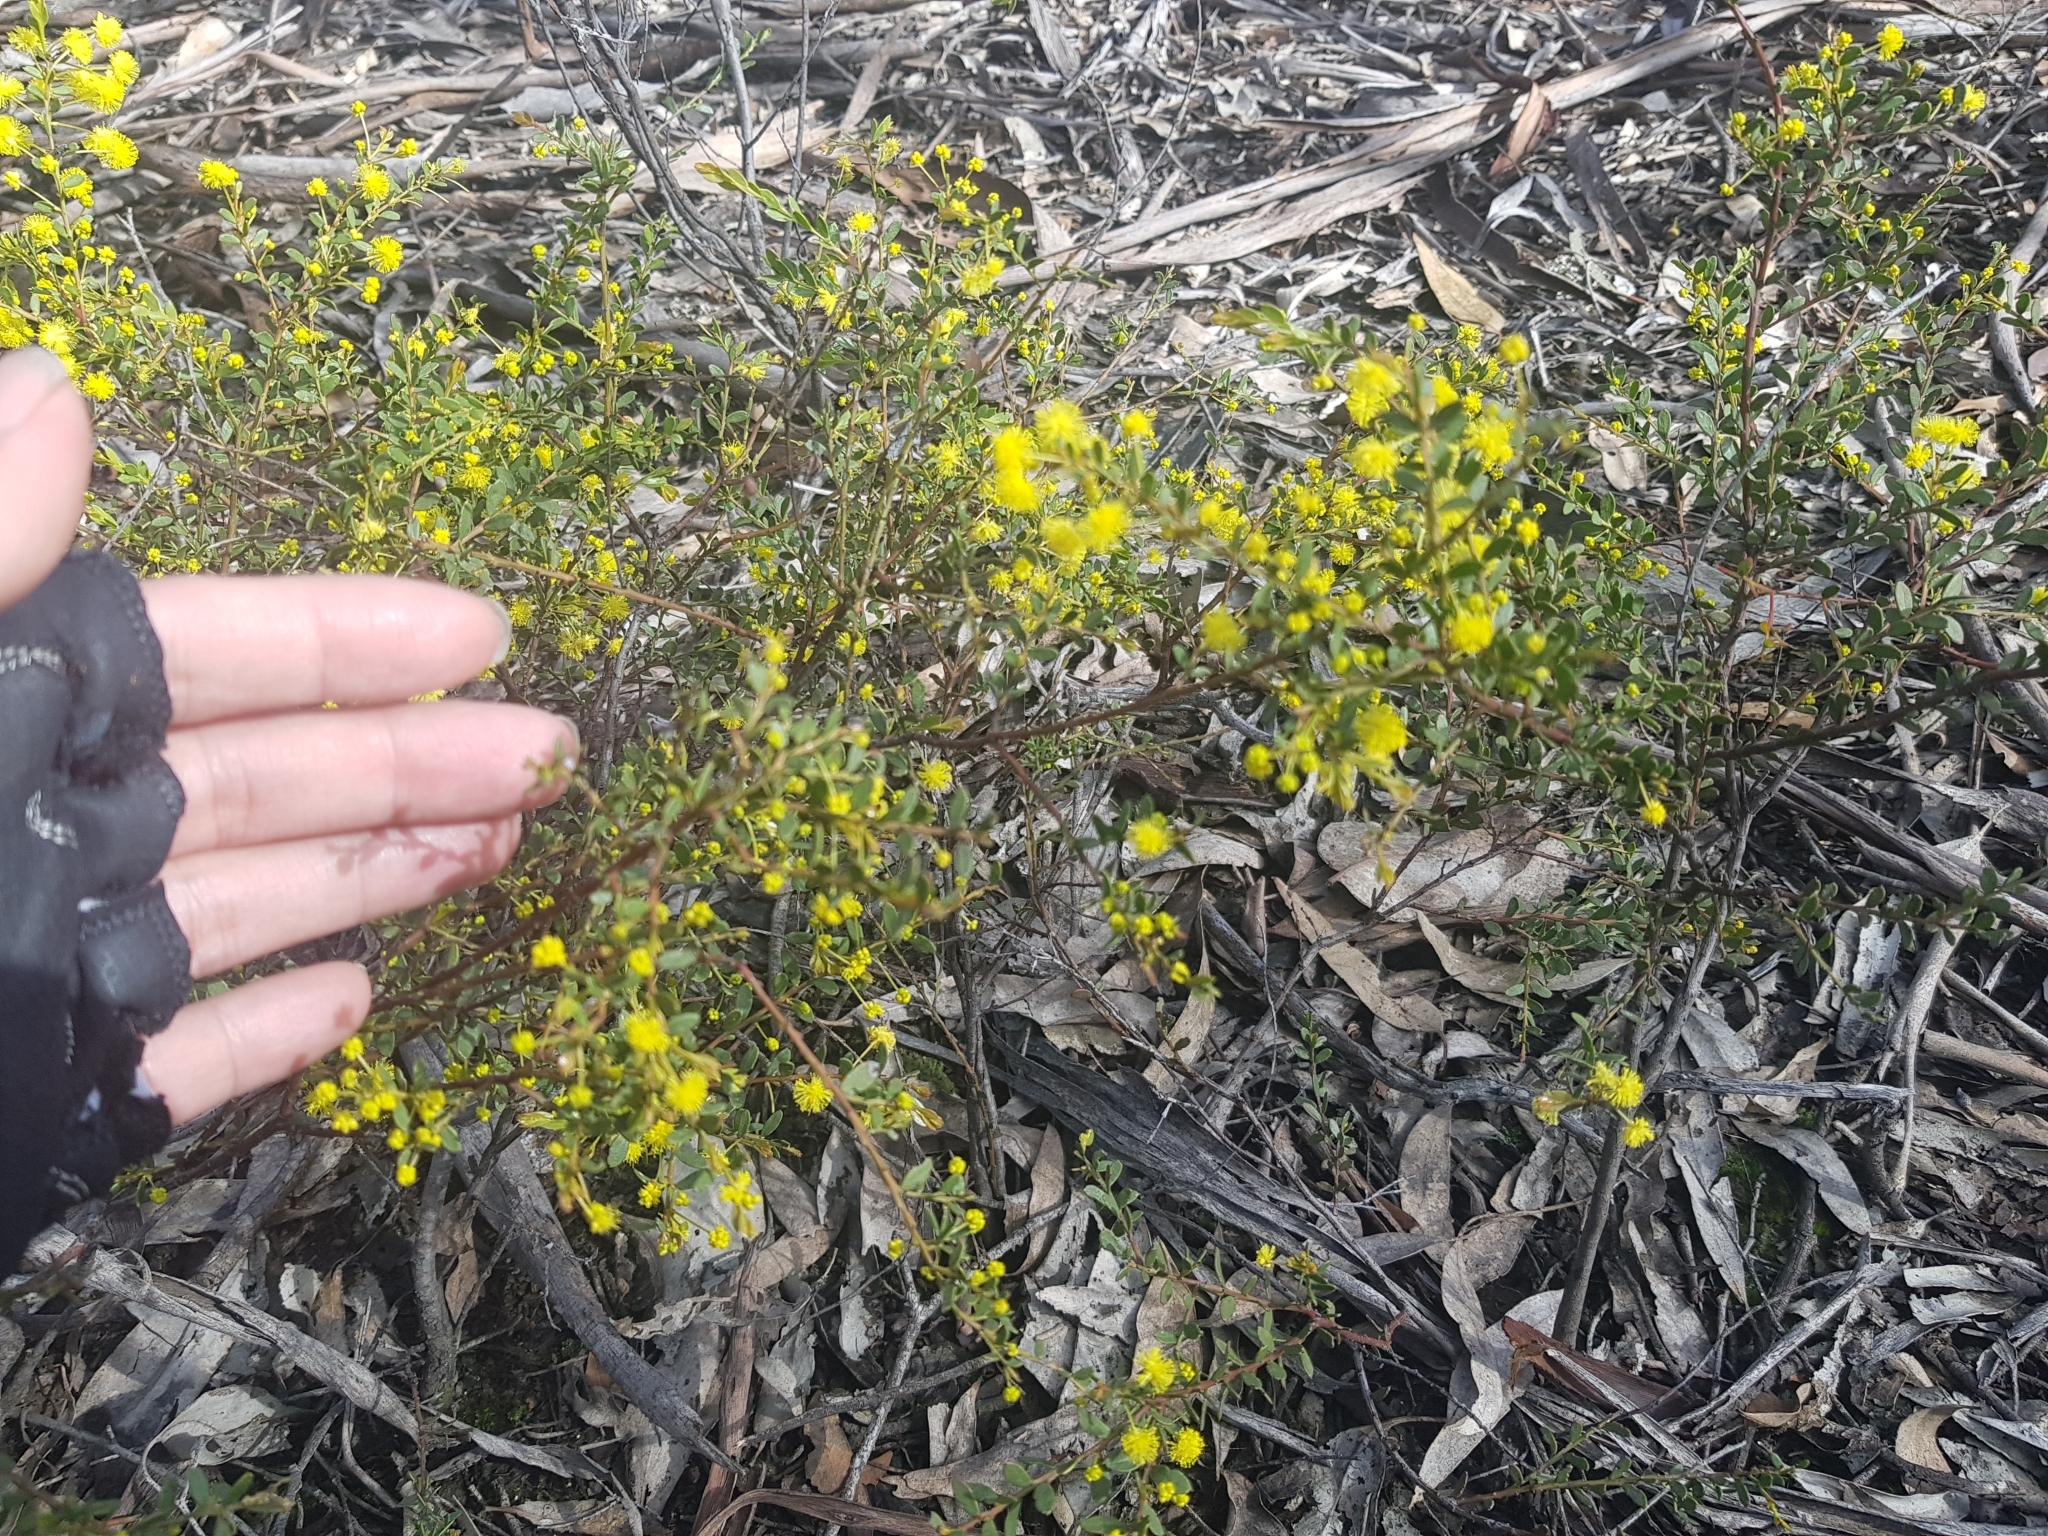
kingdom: Plantae
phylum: Tracheophyta
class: Magnoliopsida
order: Fabales
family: Fabaceae
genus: Acacia
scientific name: Acacia acinacea
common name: Gold-dust acacia
